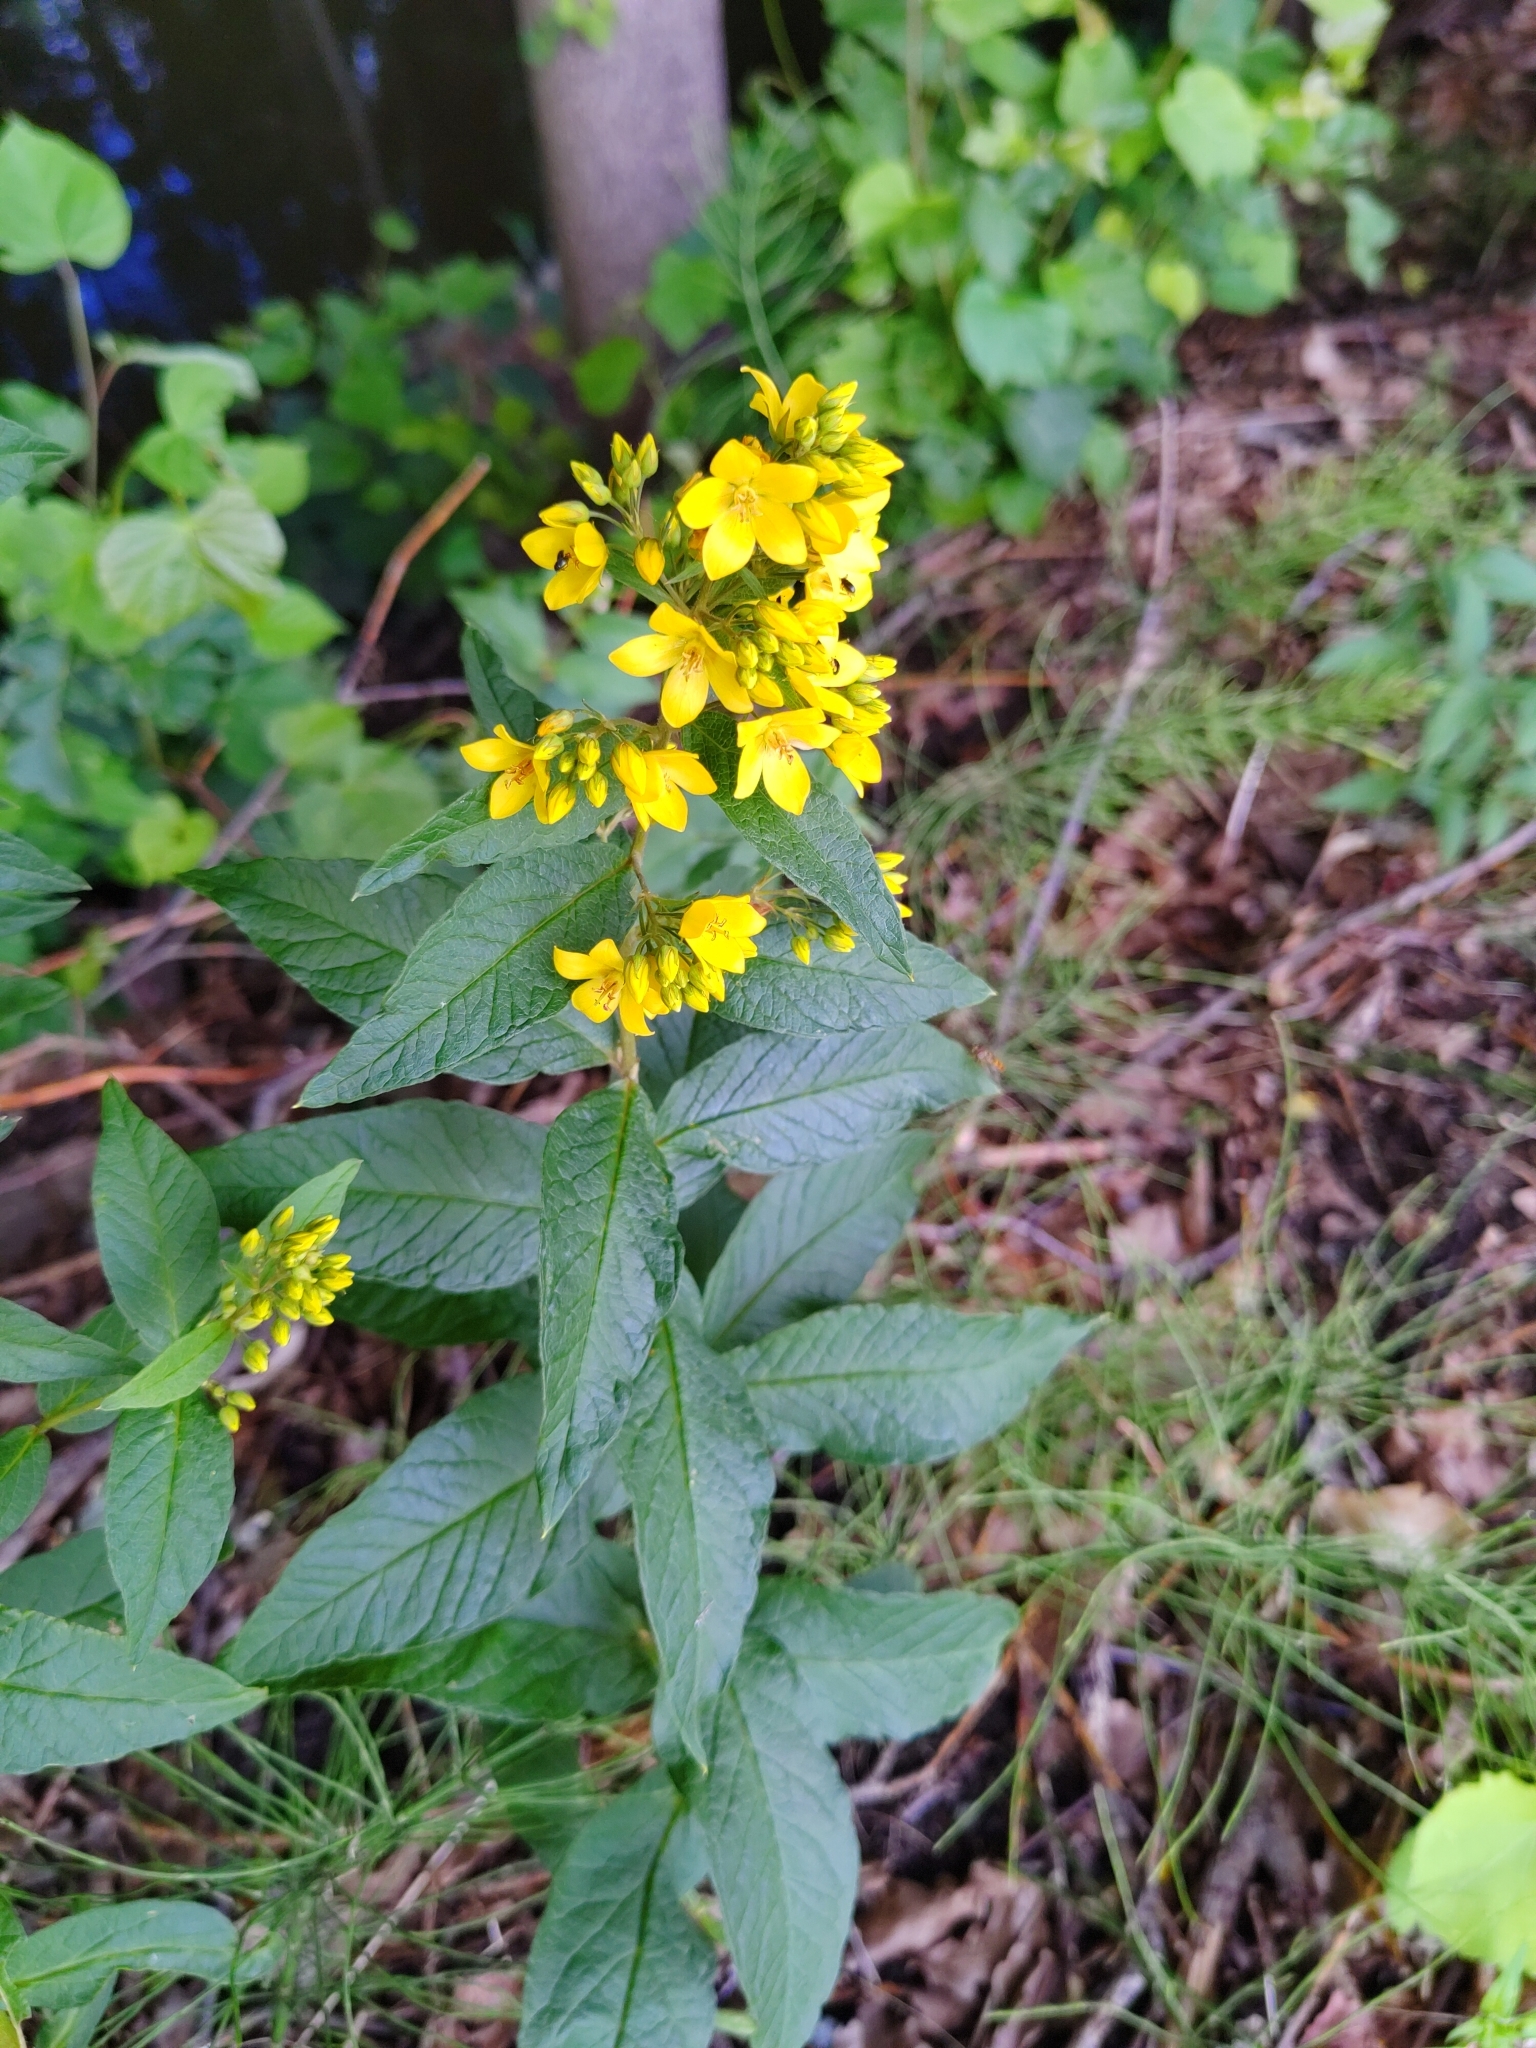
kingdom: Plantae
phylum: Tracheophyta
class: Magnoliopsida
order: Ericales
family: Primulaceae
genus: Lysimachia
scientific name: Lysimachia vulgaris
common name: Yellow loosestrife
